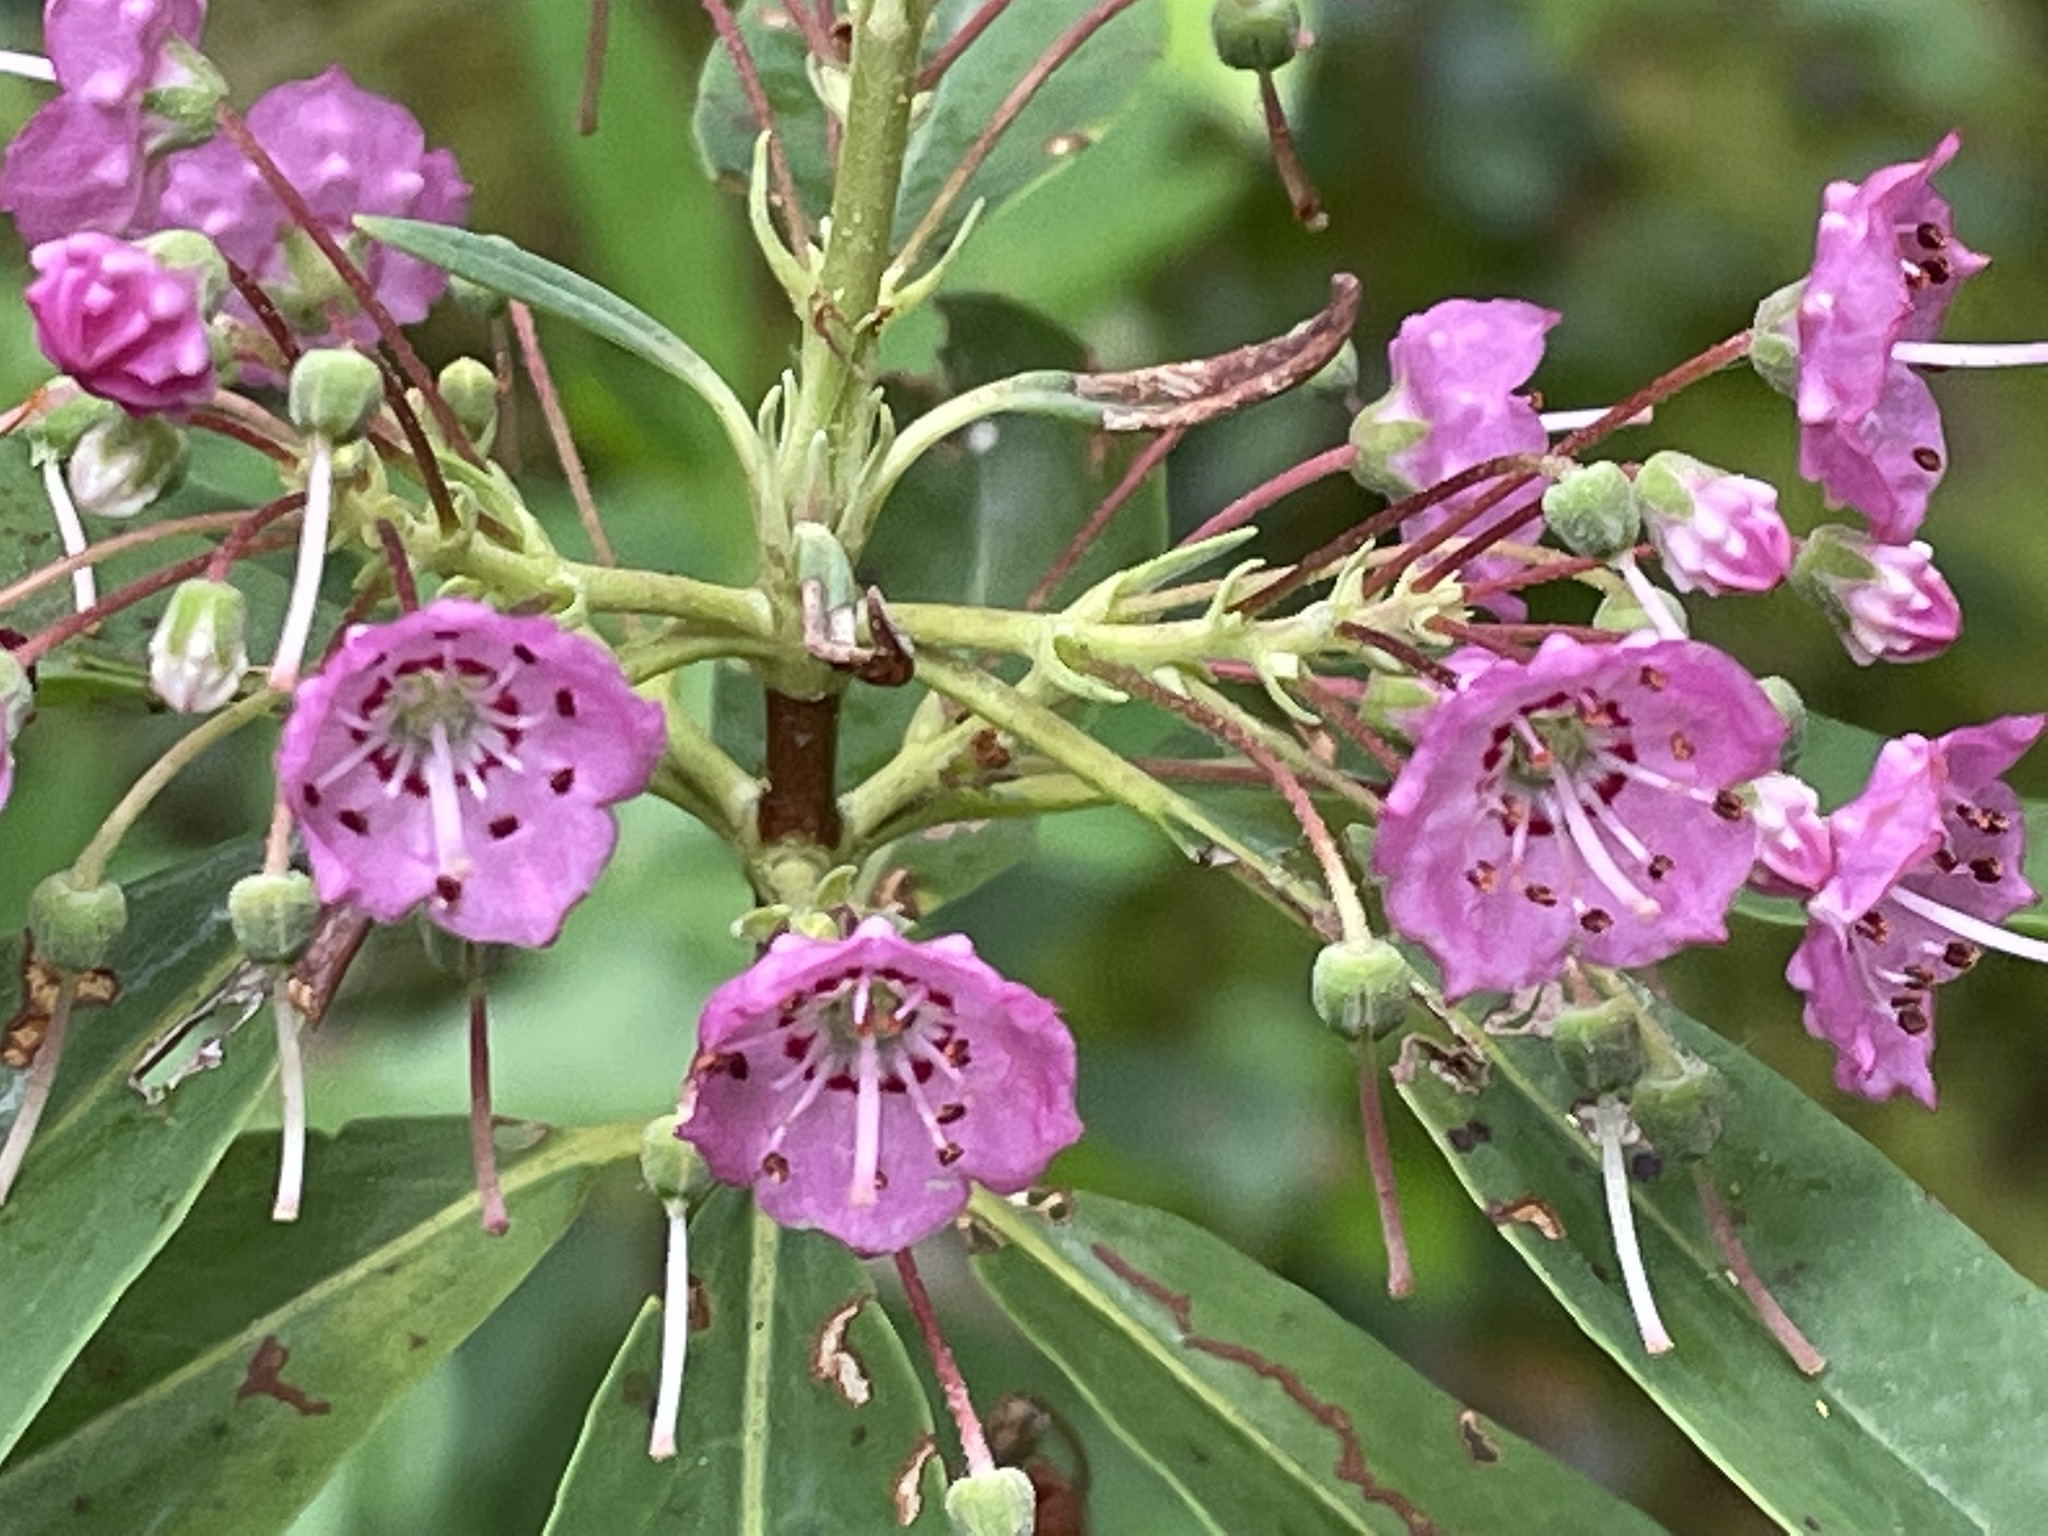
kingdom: Plantae
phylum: Tracheophyta
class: Magnoliopsida
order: Ericales
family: Ericaceae
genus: Kalmia
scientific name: Kalmia angustifolia
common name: Sheep-laurel
